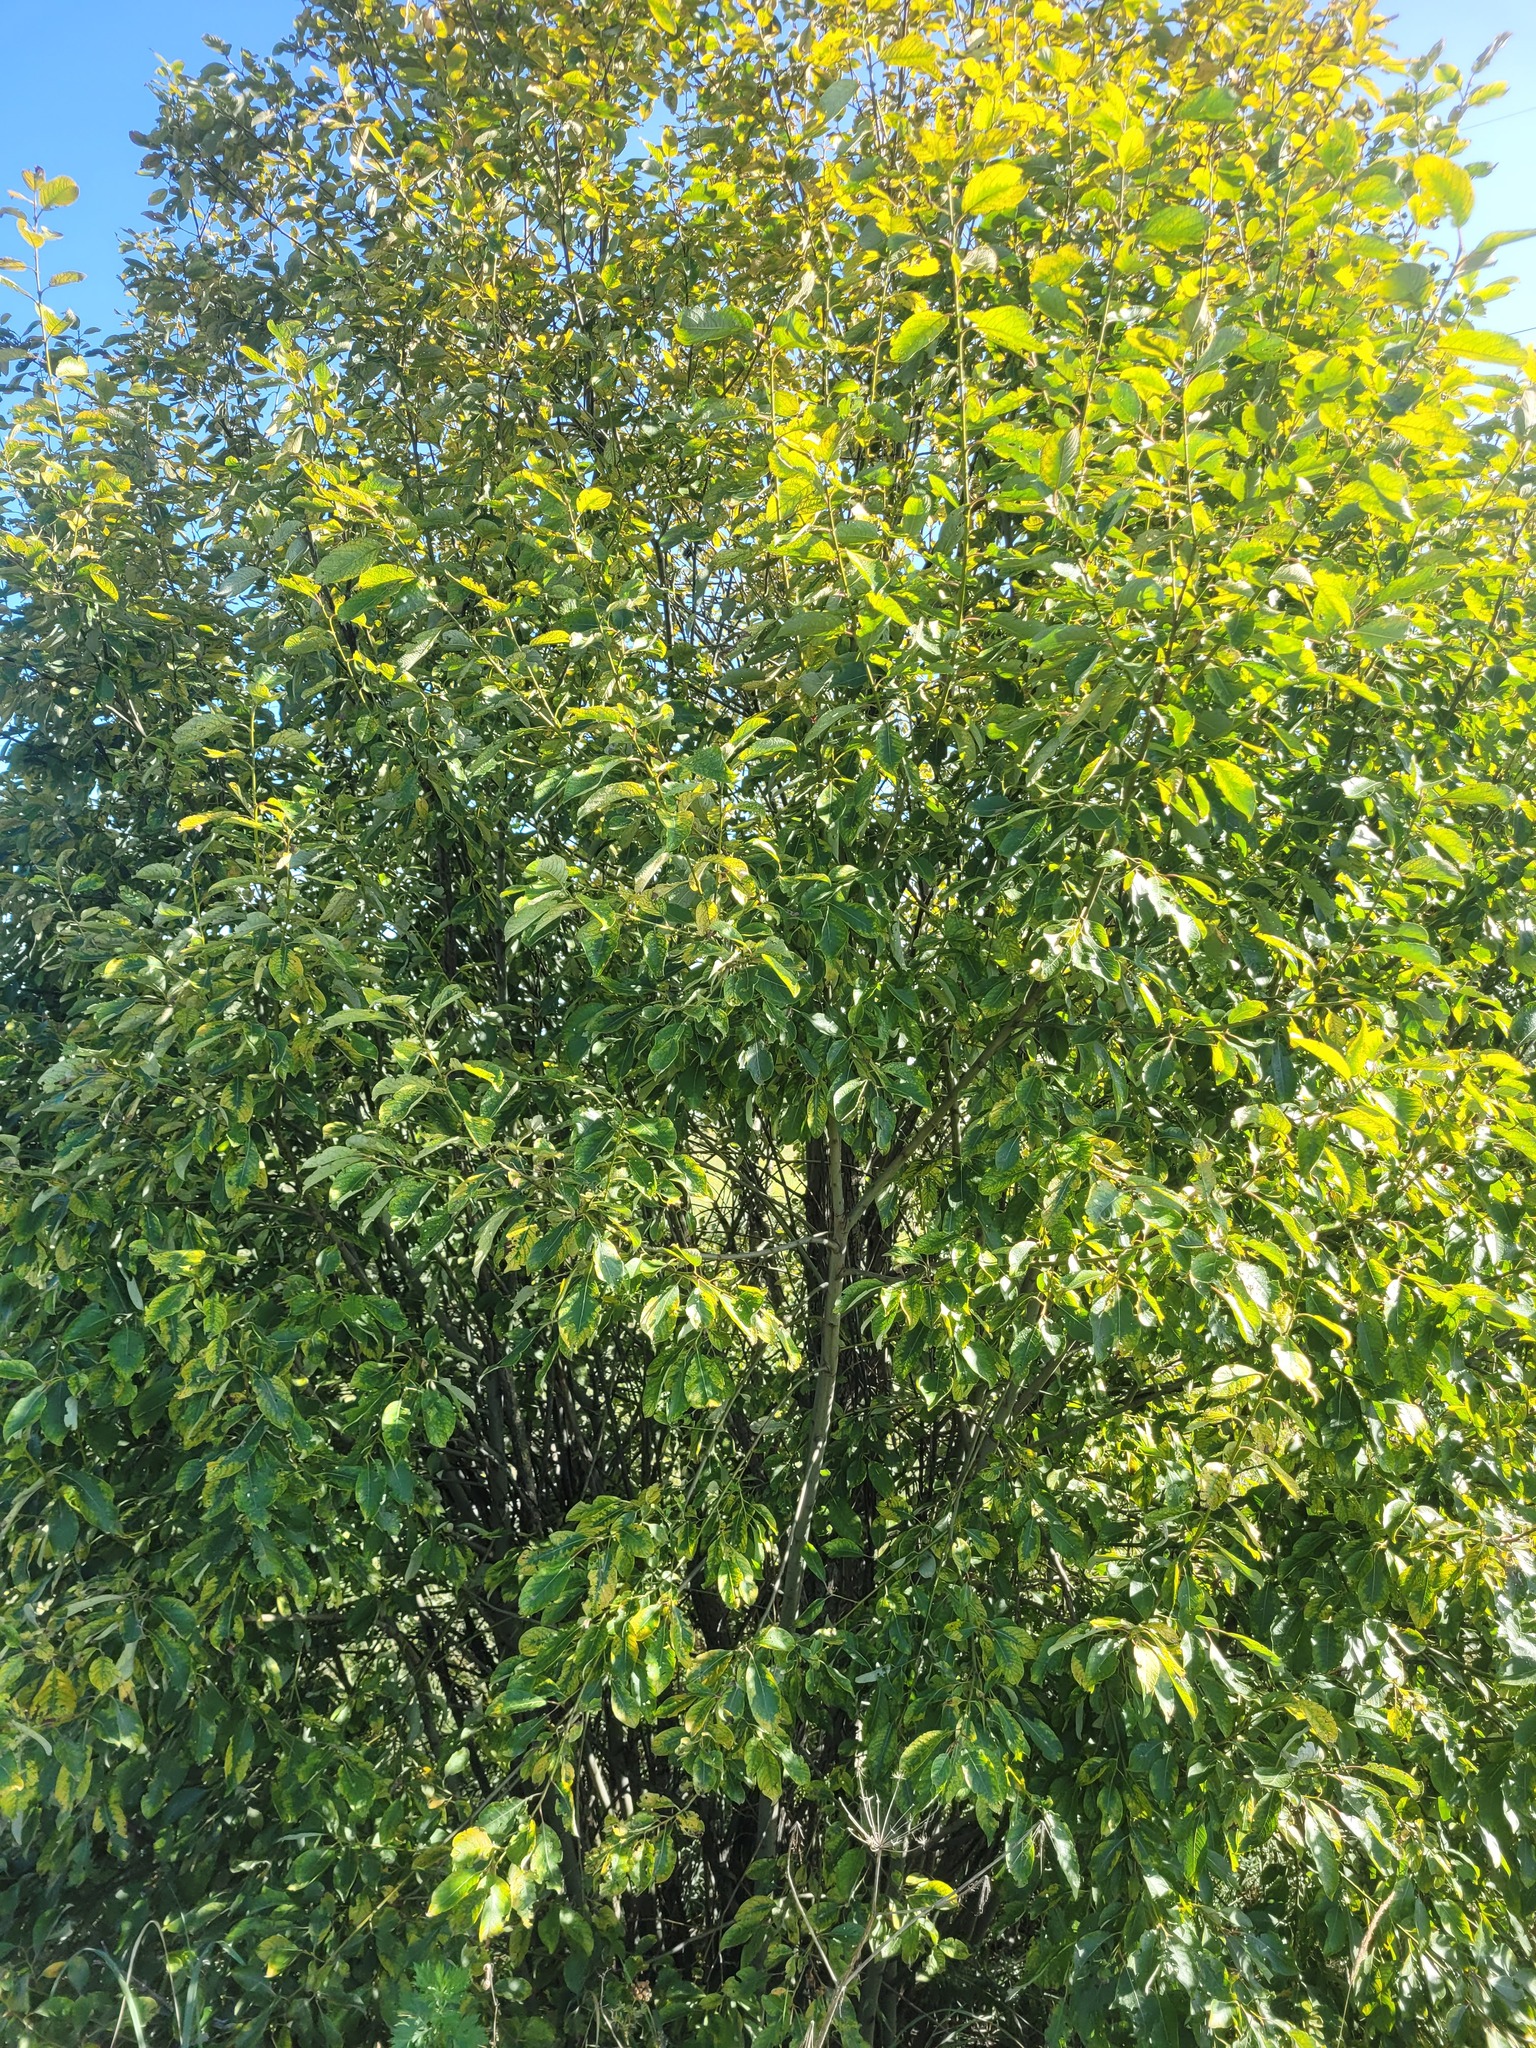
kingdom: Plantae
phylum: Tracheophyta
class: Magnoliopsida
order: Malpighiales
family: Salicaceae
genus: Salix
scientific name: Salix caprea
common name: Goat willow
